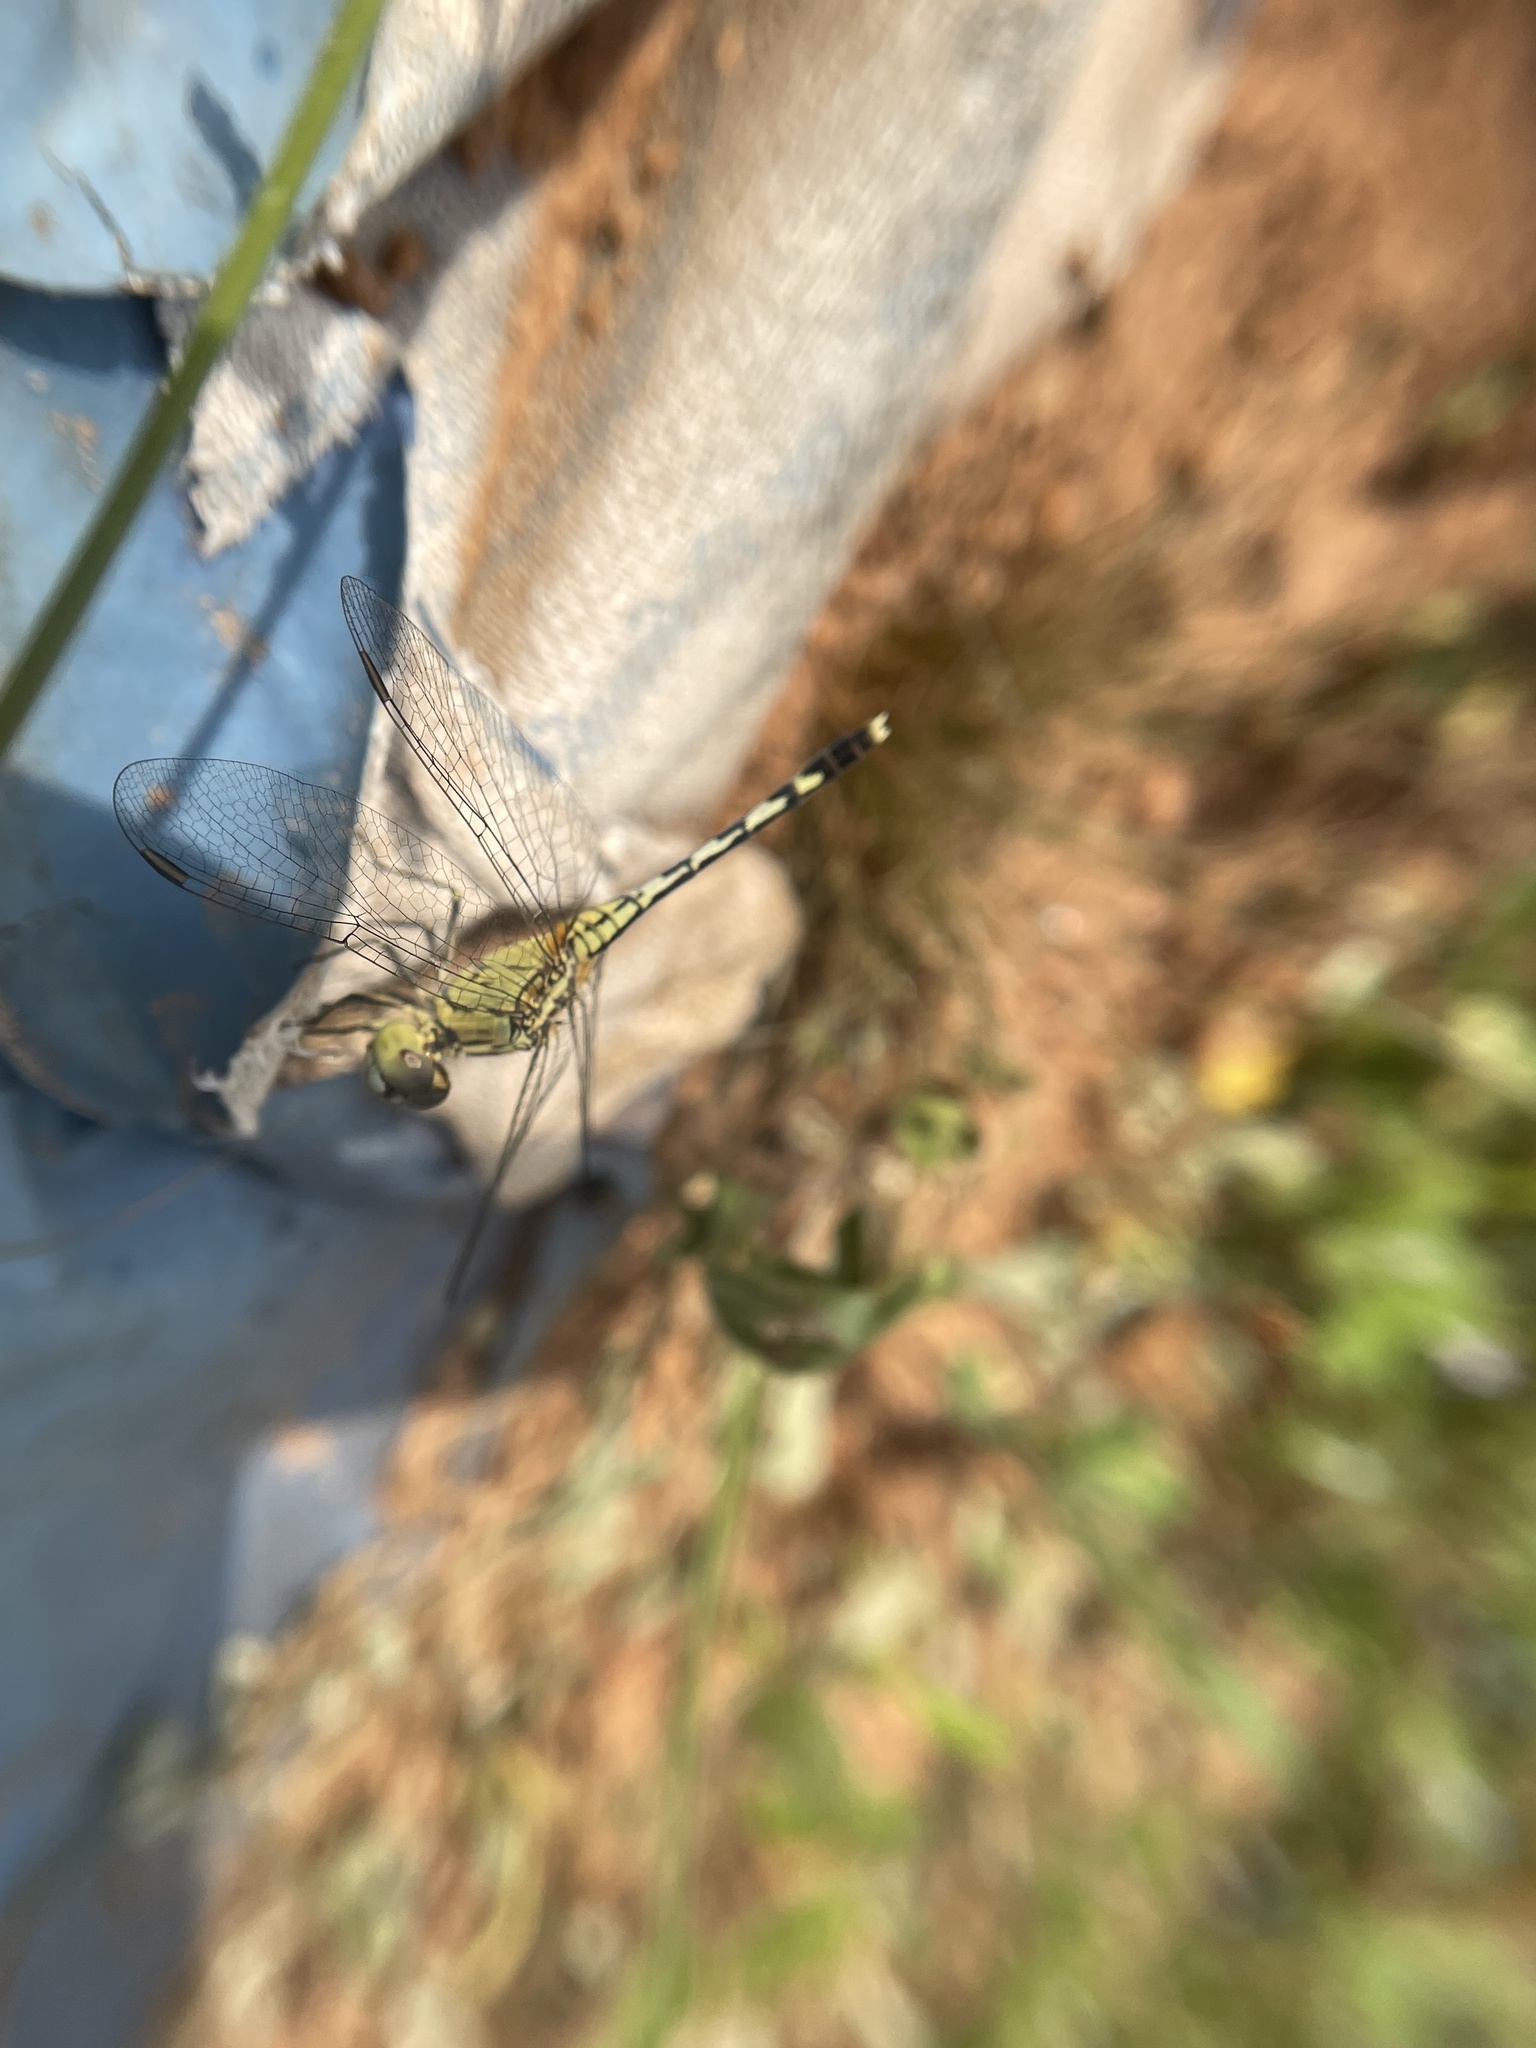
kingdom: Animalia
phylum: Arthropoda
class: Insecta
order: Odonata
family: Libellulidae
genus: Diplacodes
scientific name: Diplacodes trivialis
